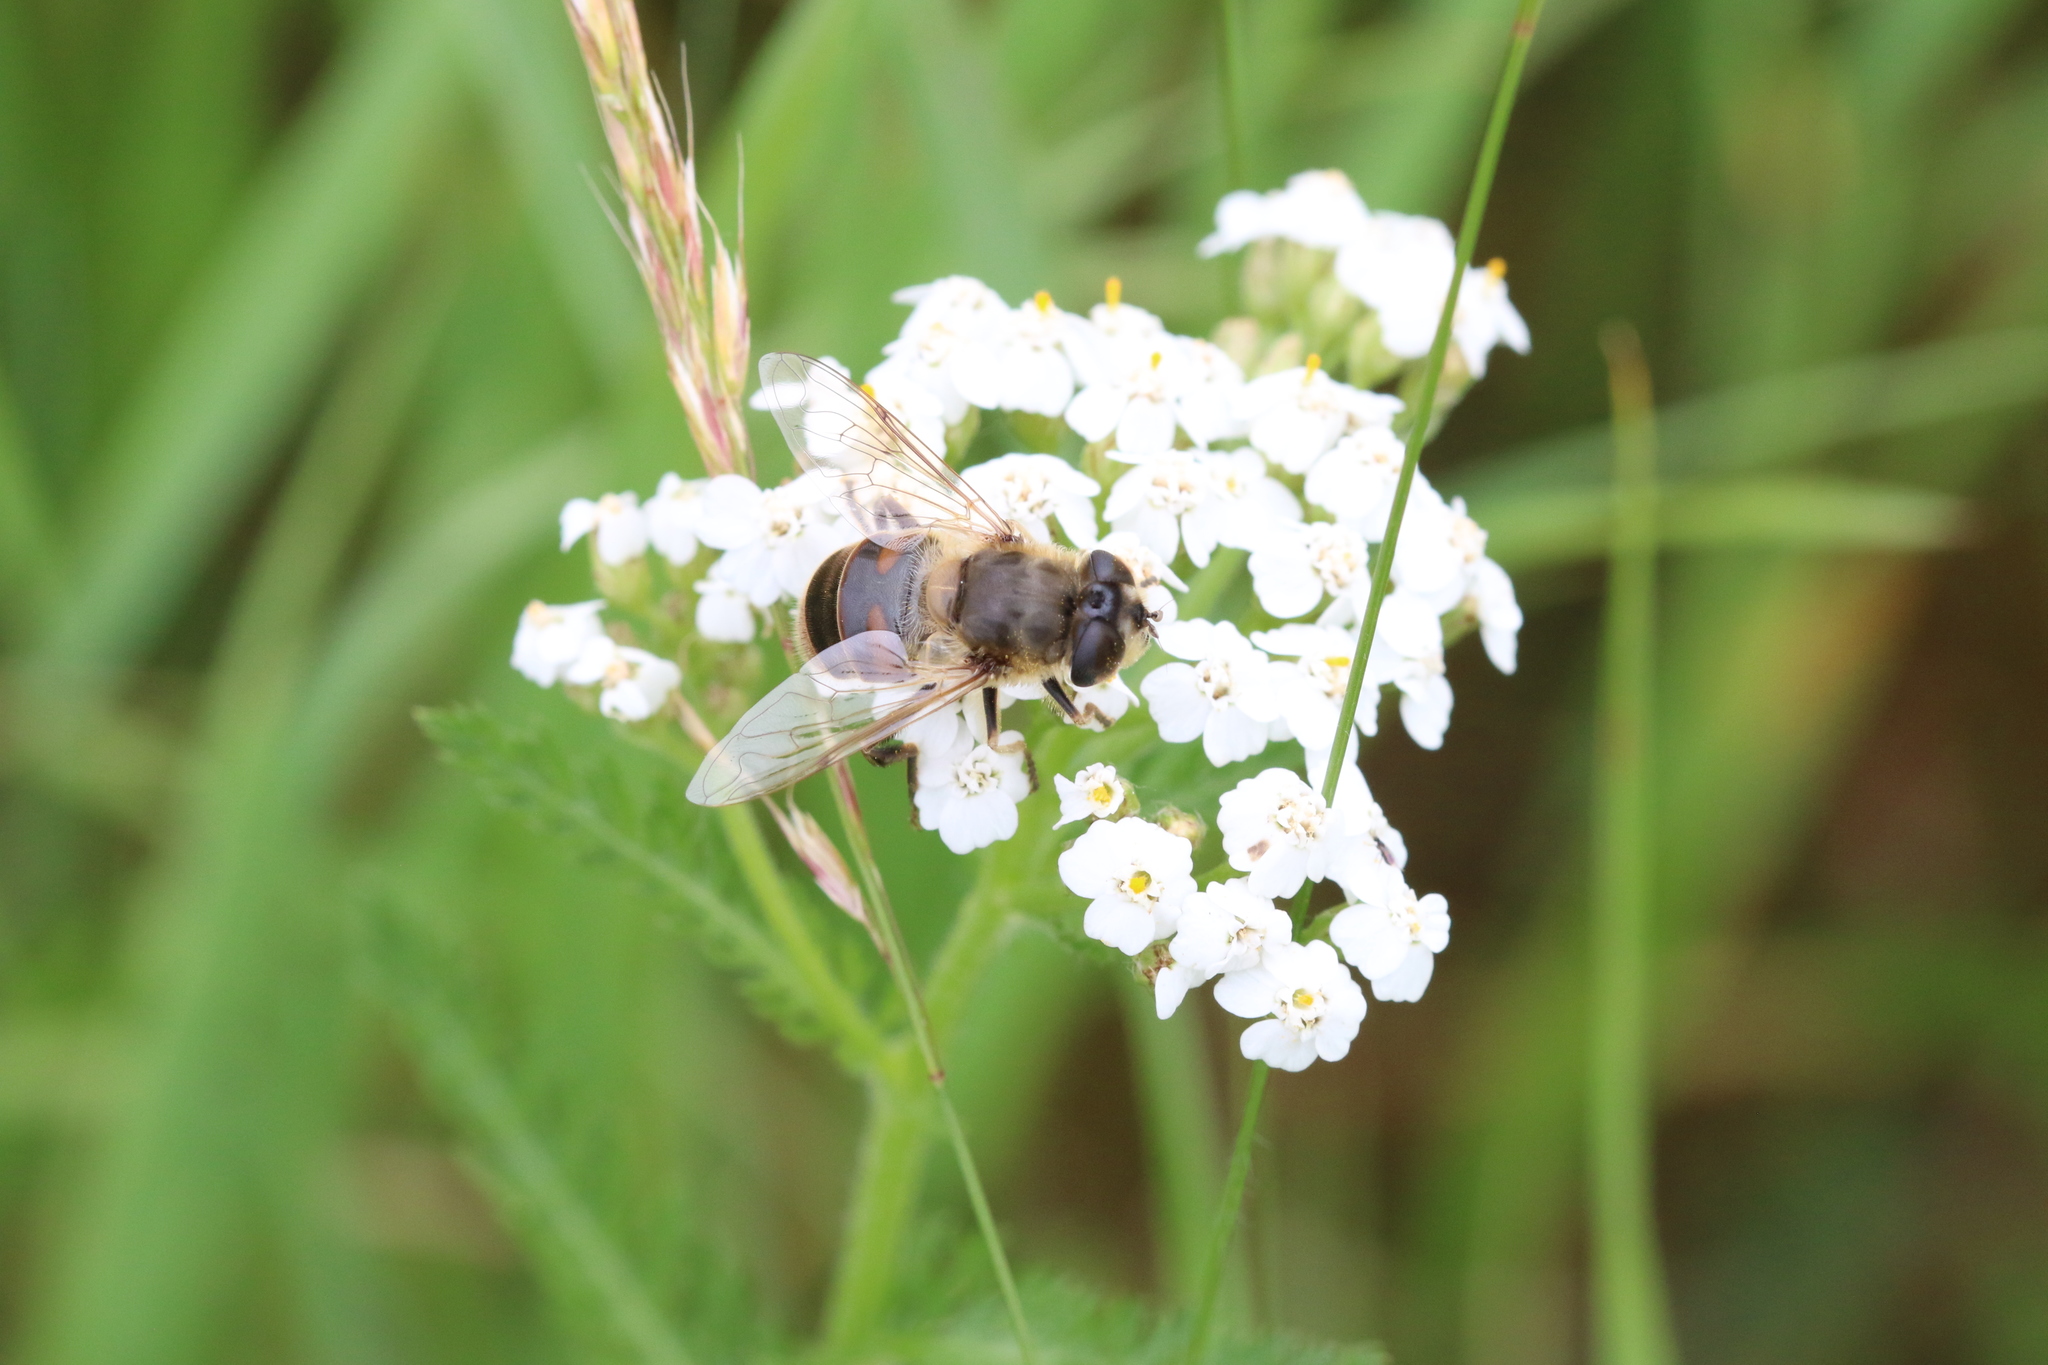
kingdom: Animalia
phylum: Arthropoda
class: Insecta
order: Diptera
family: Syrphidae
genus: Eristalis
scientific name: Eristalis tenax
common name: Drone fly
